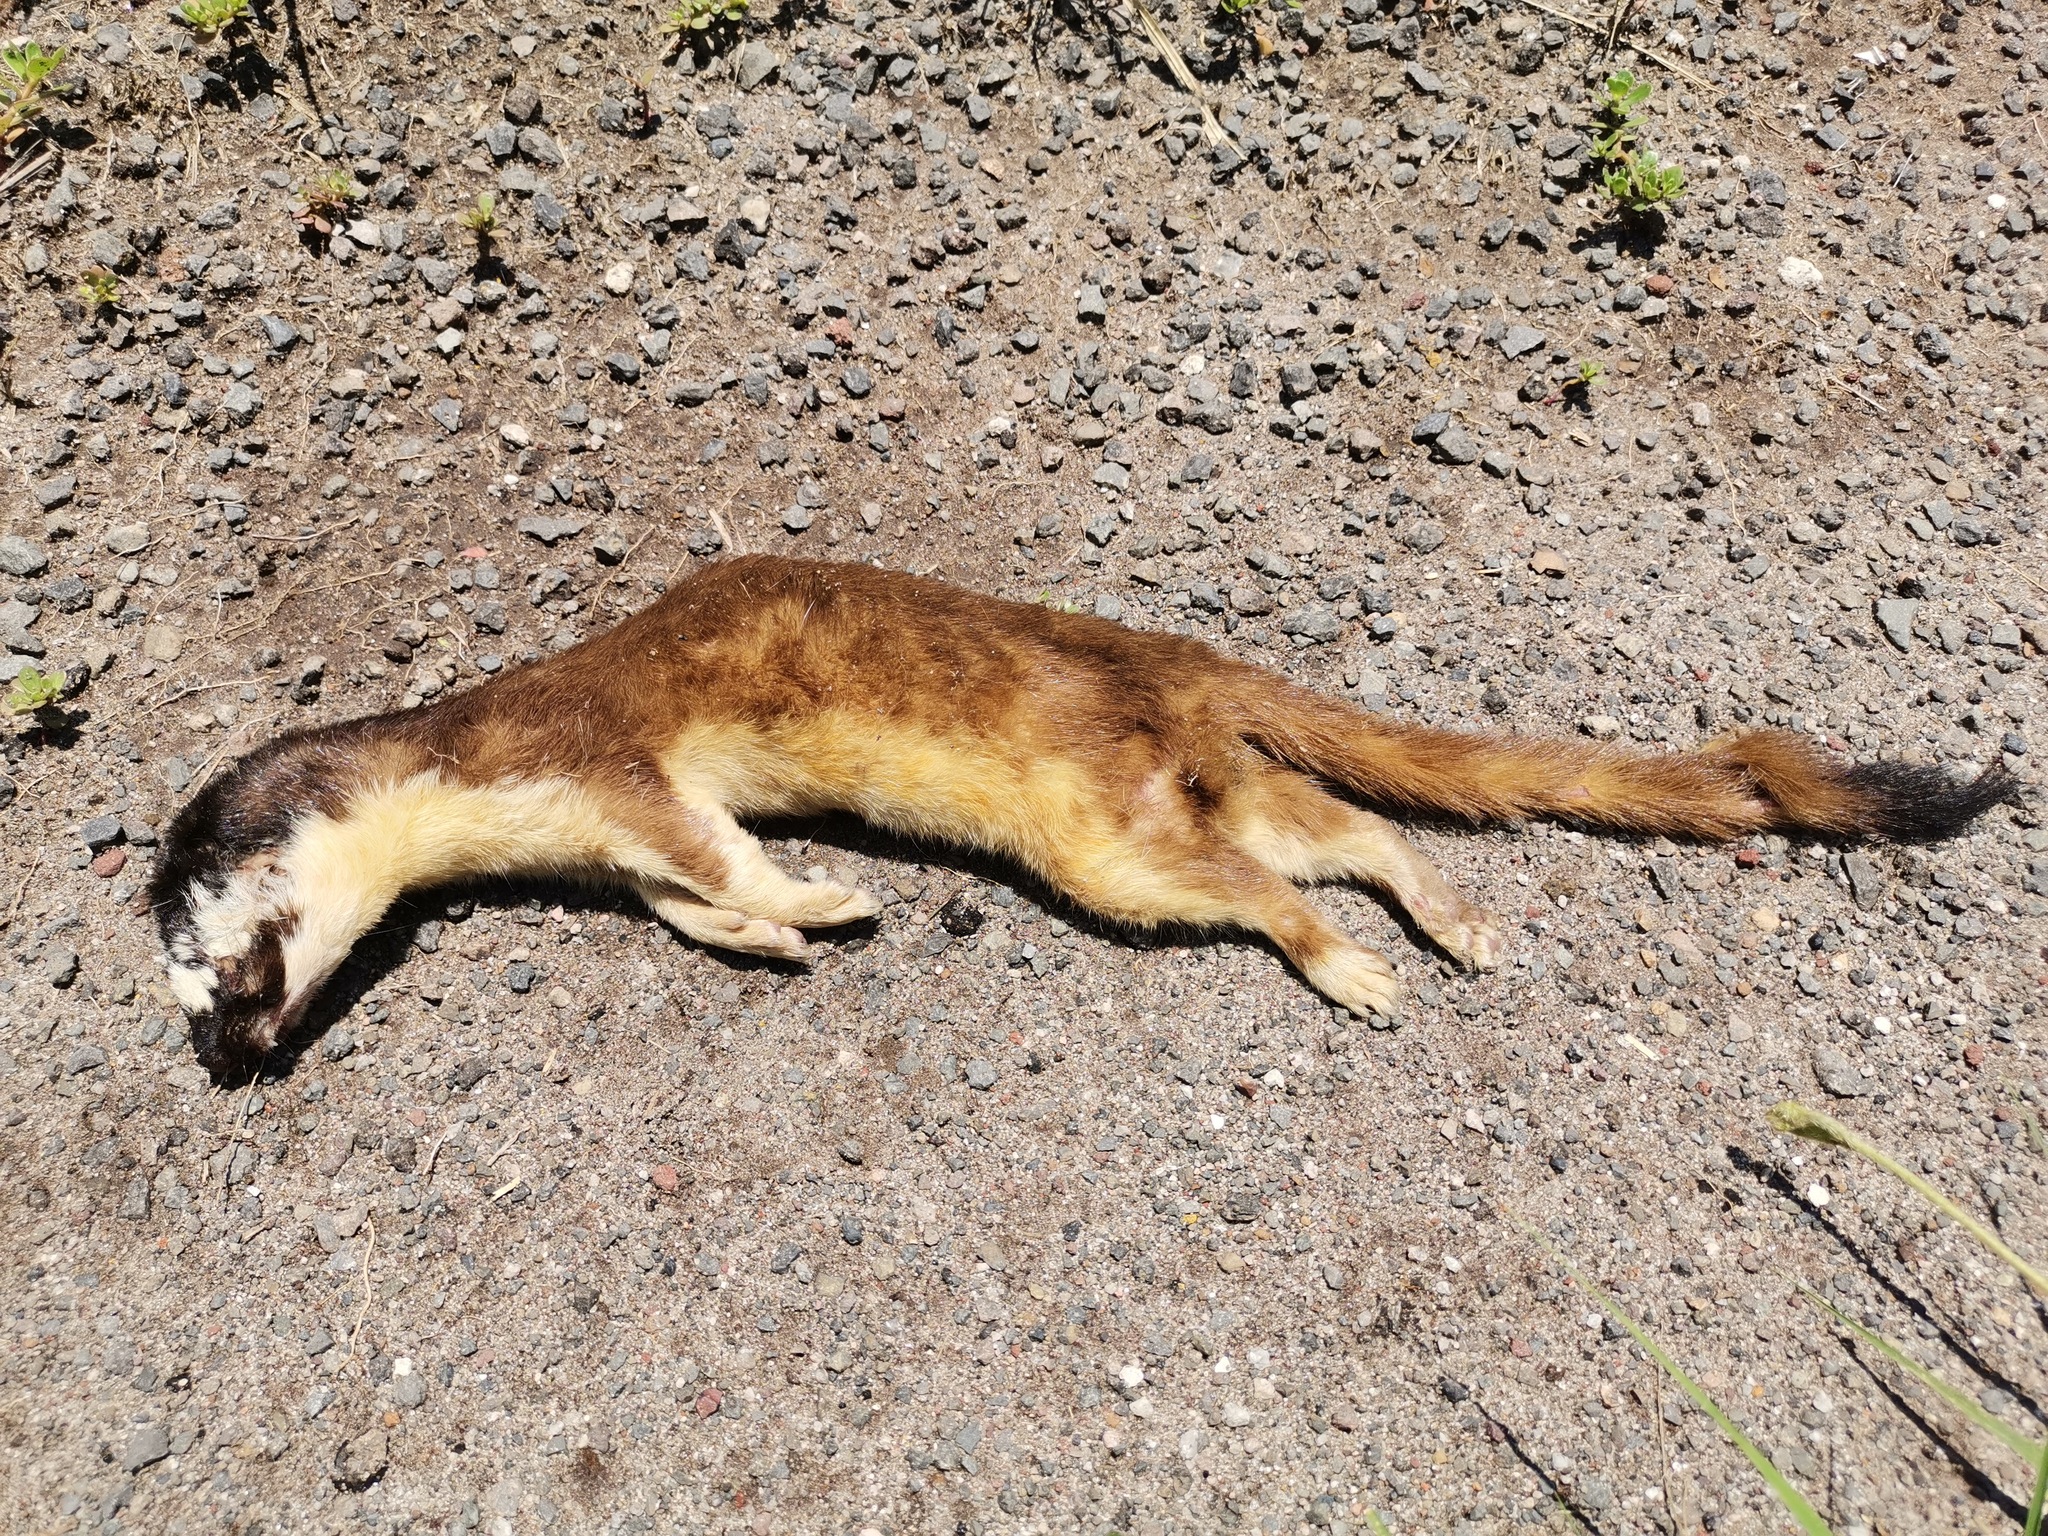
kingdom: Animalia
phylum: Chordata
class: Mammalia
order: Carnivora
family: Mustelidae
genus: Mustela
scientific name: Mustela
